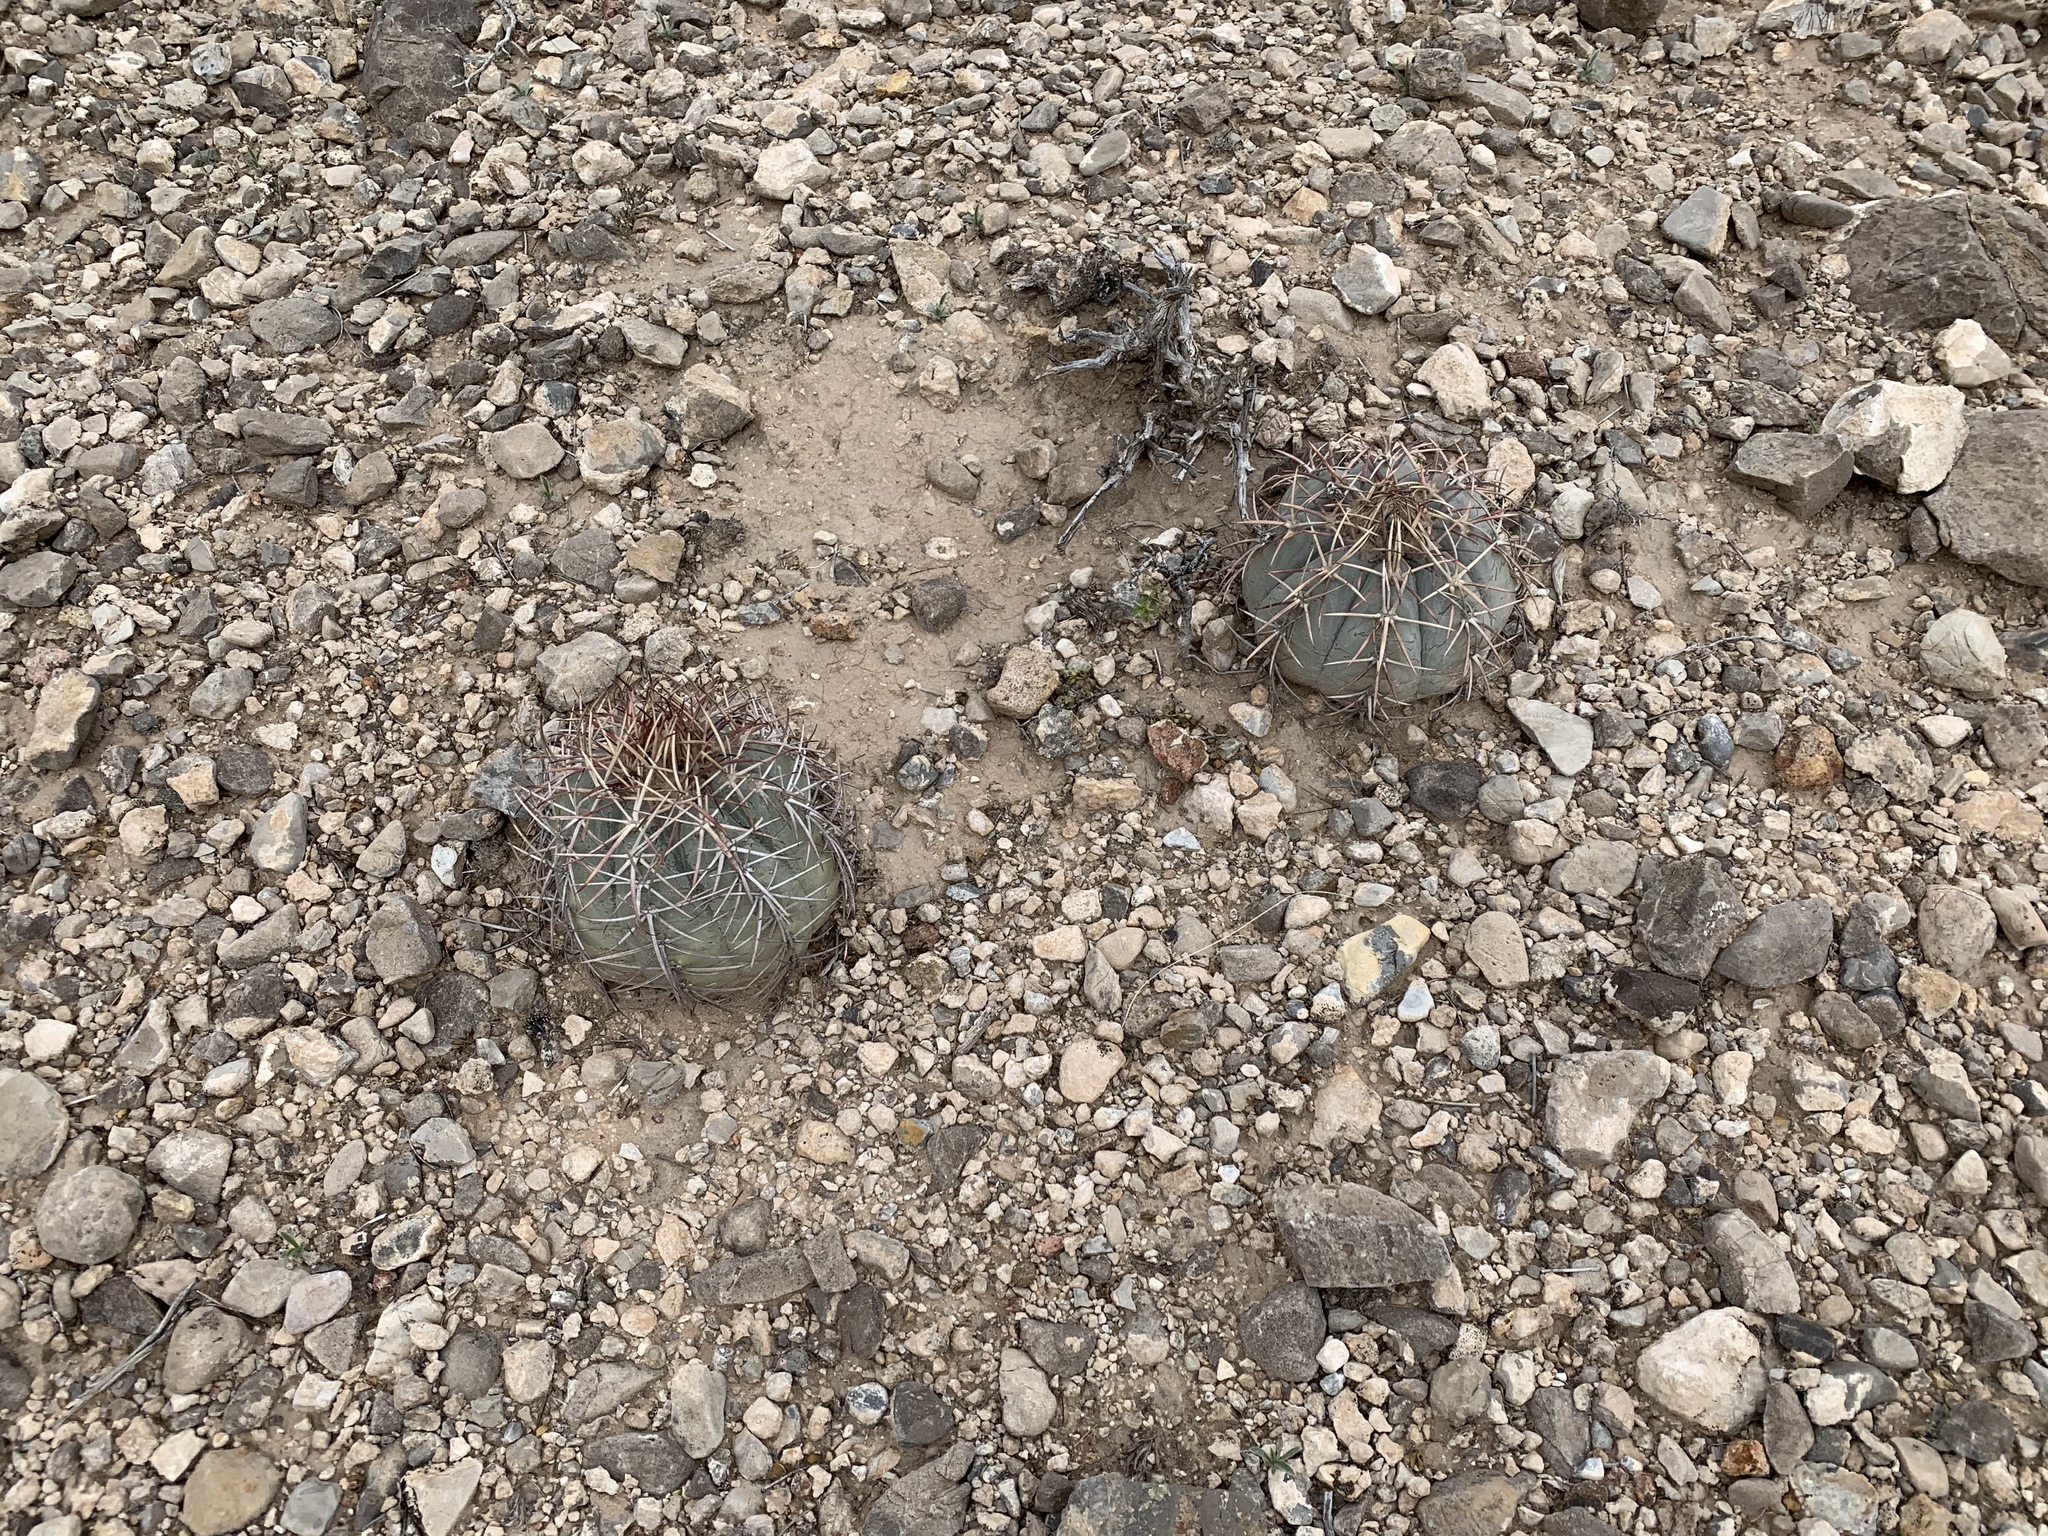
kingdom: Plantae
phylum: Tracheophyta
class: Magnoliopsida
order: Caryophyllales
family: Cactaceae
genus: Echinocactus
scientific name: Echinocactus horizonthalonius
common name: Devilshead
